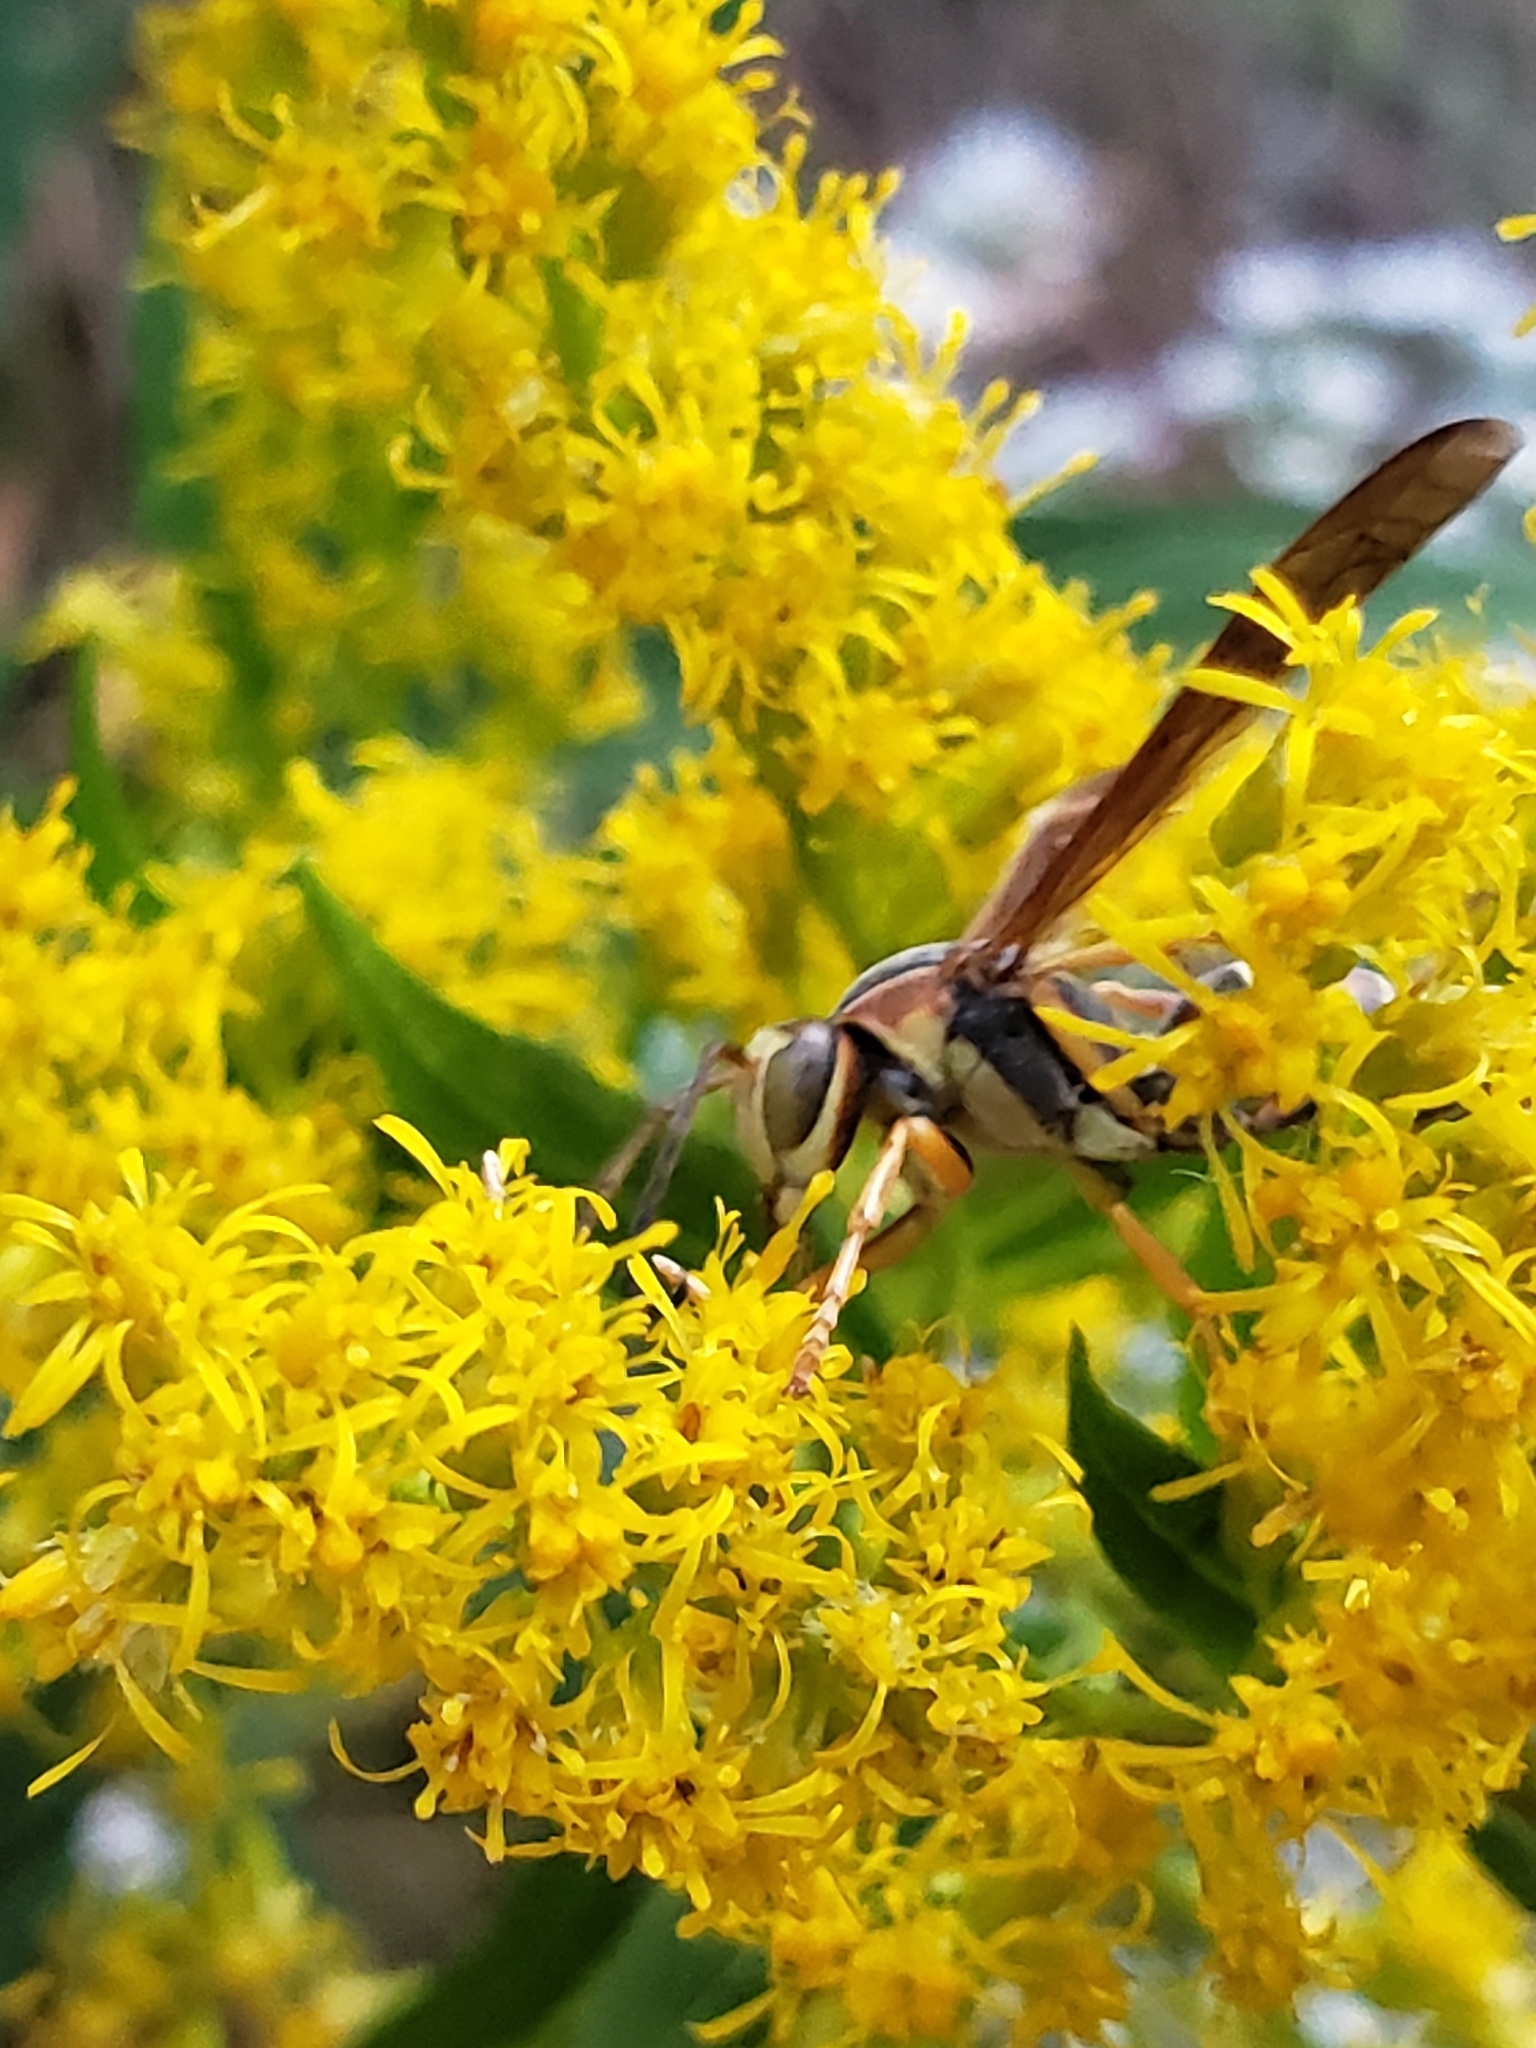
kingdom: Animalia
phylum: Arthropoda
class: Insecta
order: Hymenoptera
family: Eumenidae
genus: Polistes
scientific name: Polistes fuscatus
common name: Dark paper wasp
